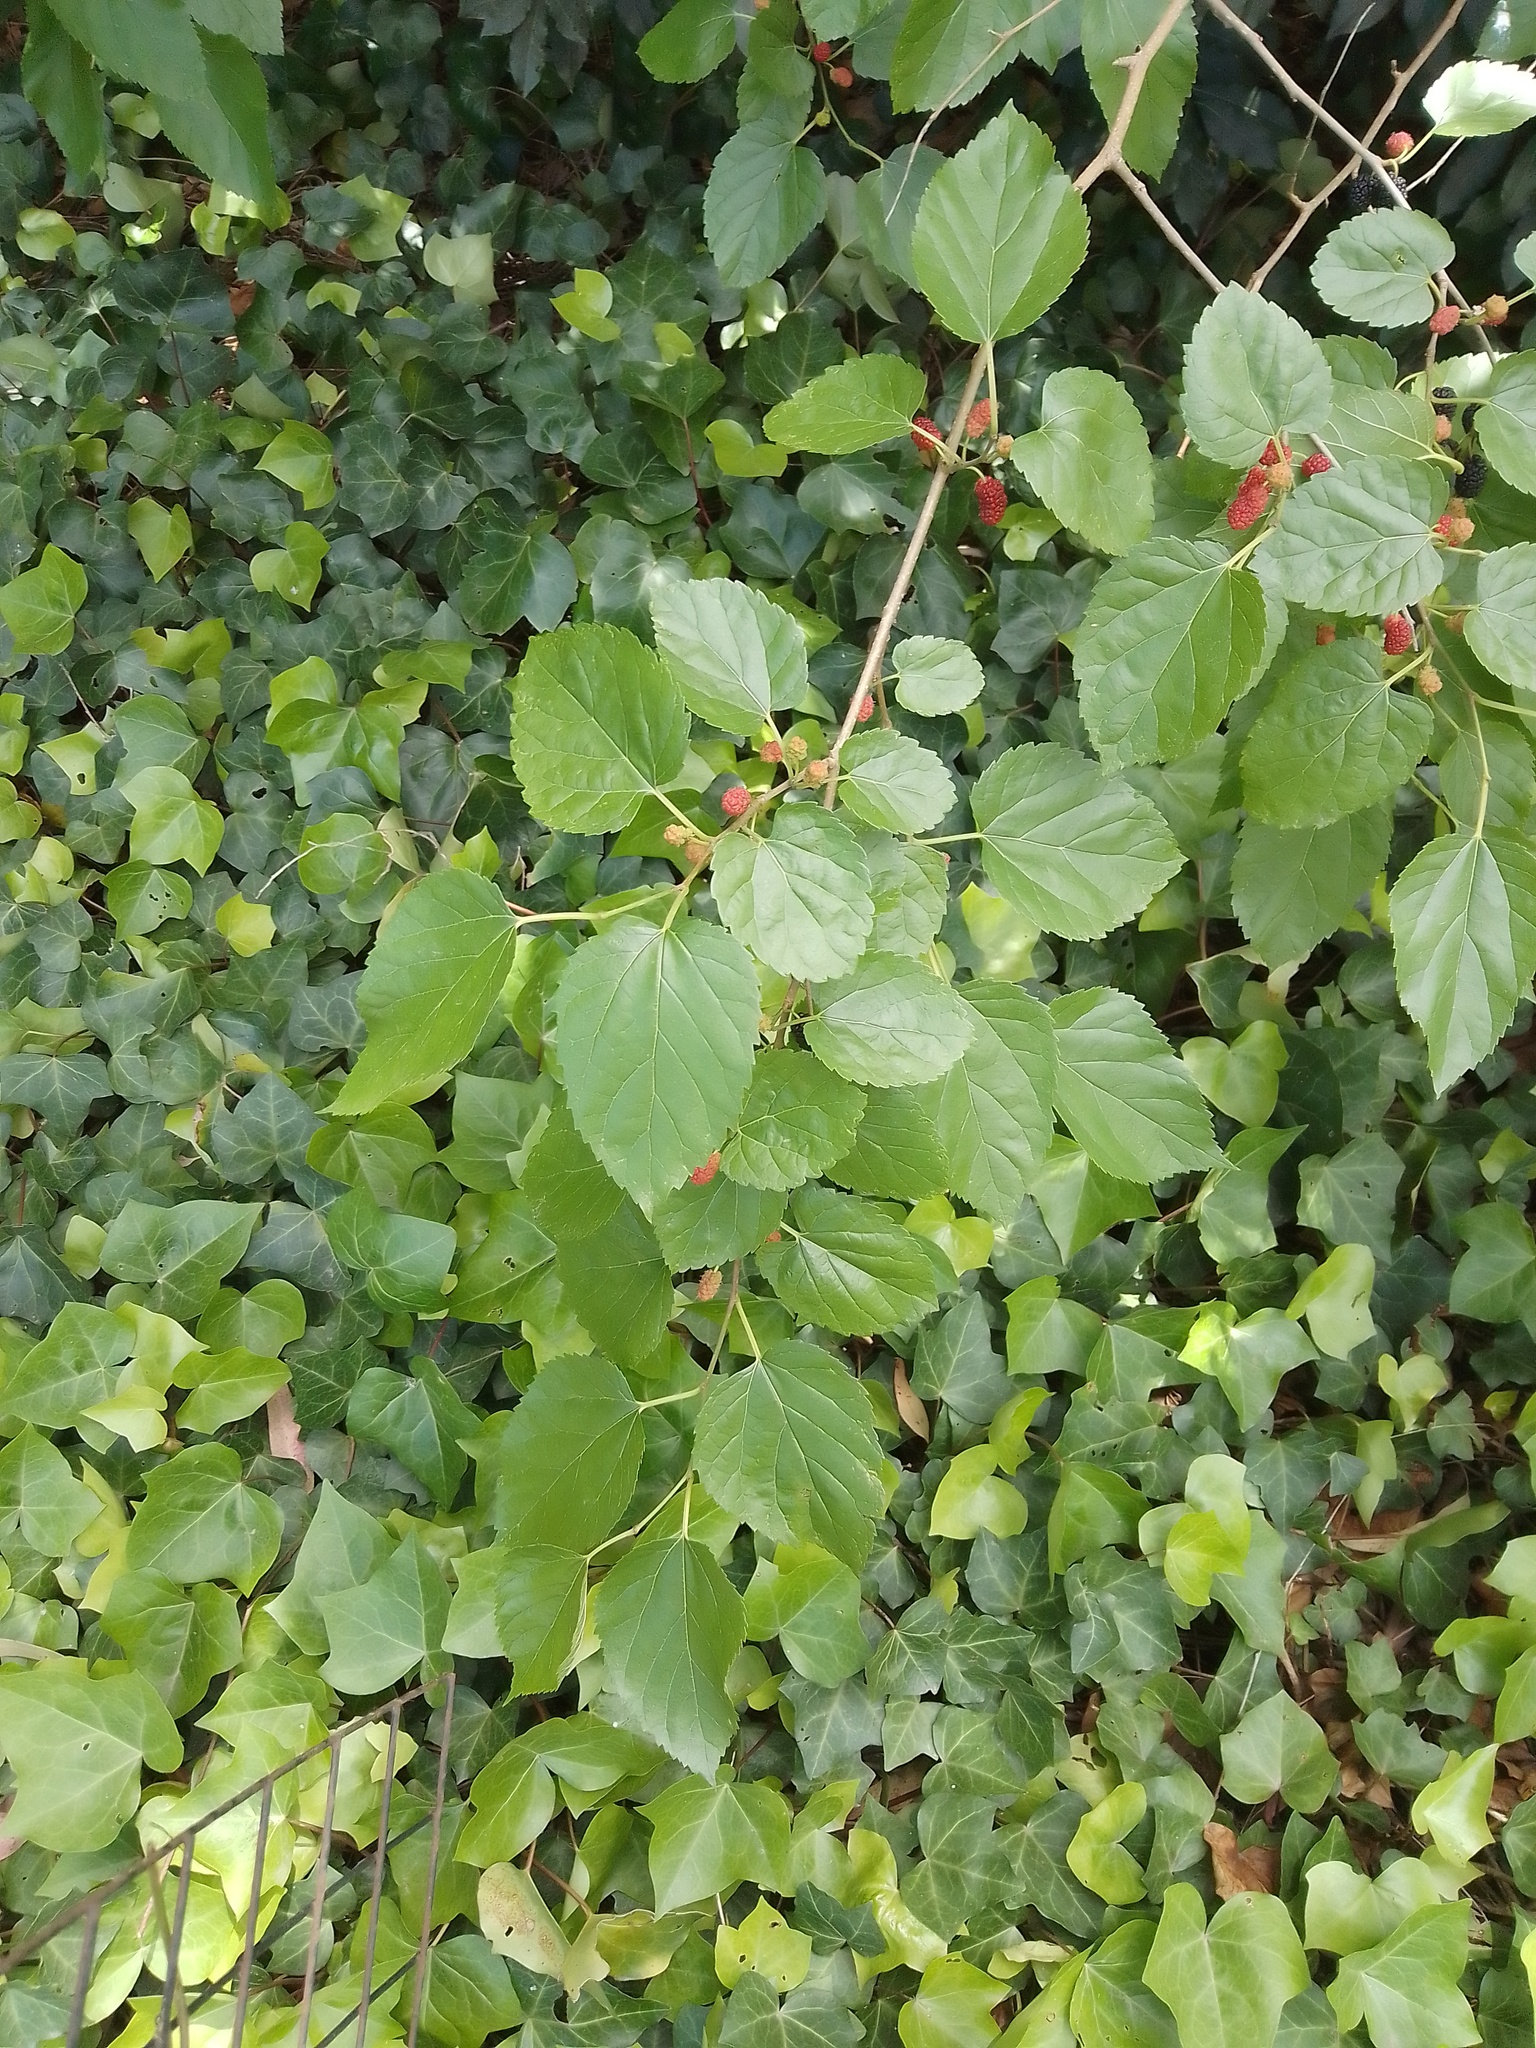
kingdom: Plantae
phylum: Tracheophyta
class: Magnoliopsida
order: Apiales
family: Araliaceae
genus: Hedera
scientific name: Hedera helix
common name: Ivy
